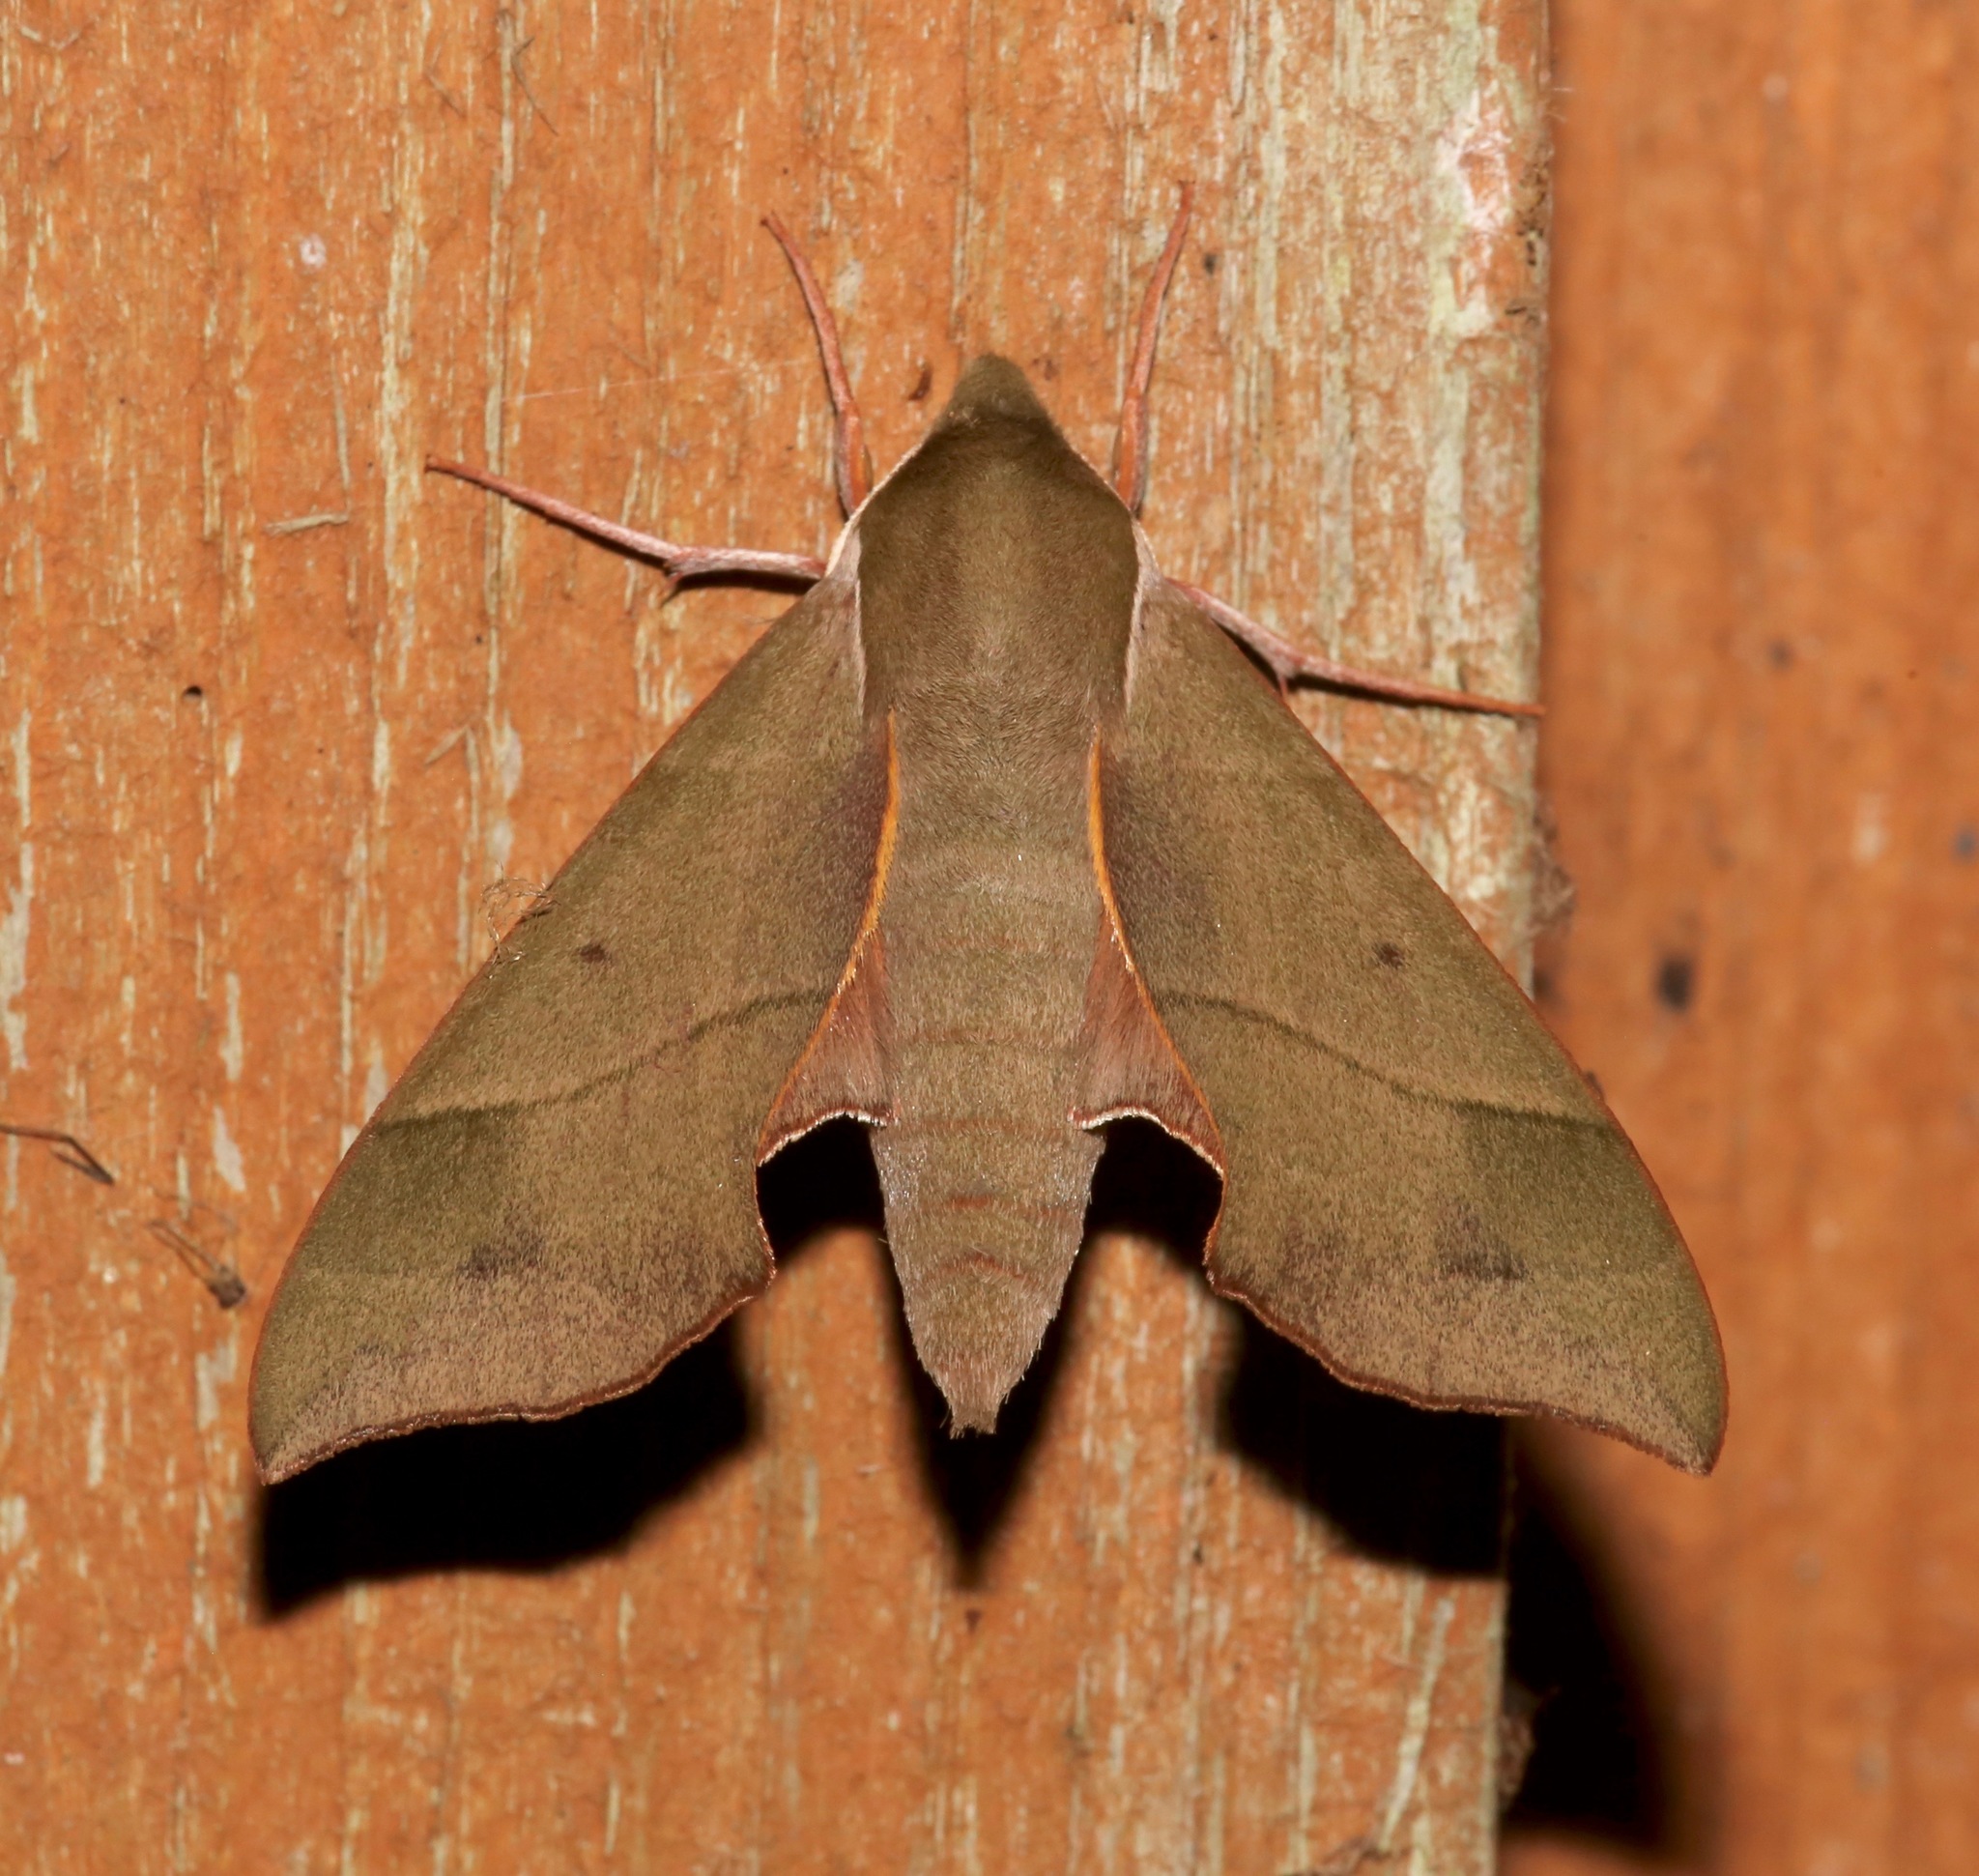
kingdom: Animalia
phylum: Arthropoda
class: Insecta
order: Lepidoptera
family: Sphingidae
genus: Darapsa
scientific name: Darapsa myron
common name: Hog sphinx
